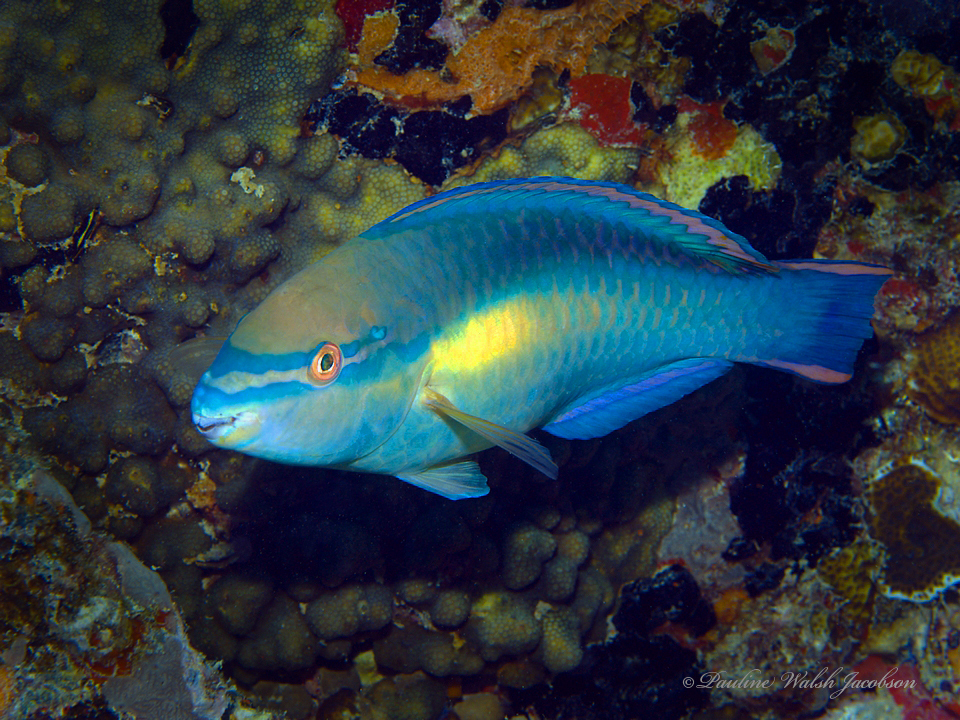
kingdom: Animalia
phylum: Chordata
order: Perciformes
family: Scaridae
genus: Scarus
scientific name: Scarus taeniopterus
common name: Princess parrotfish
